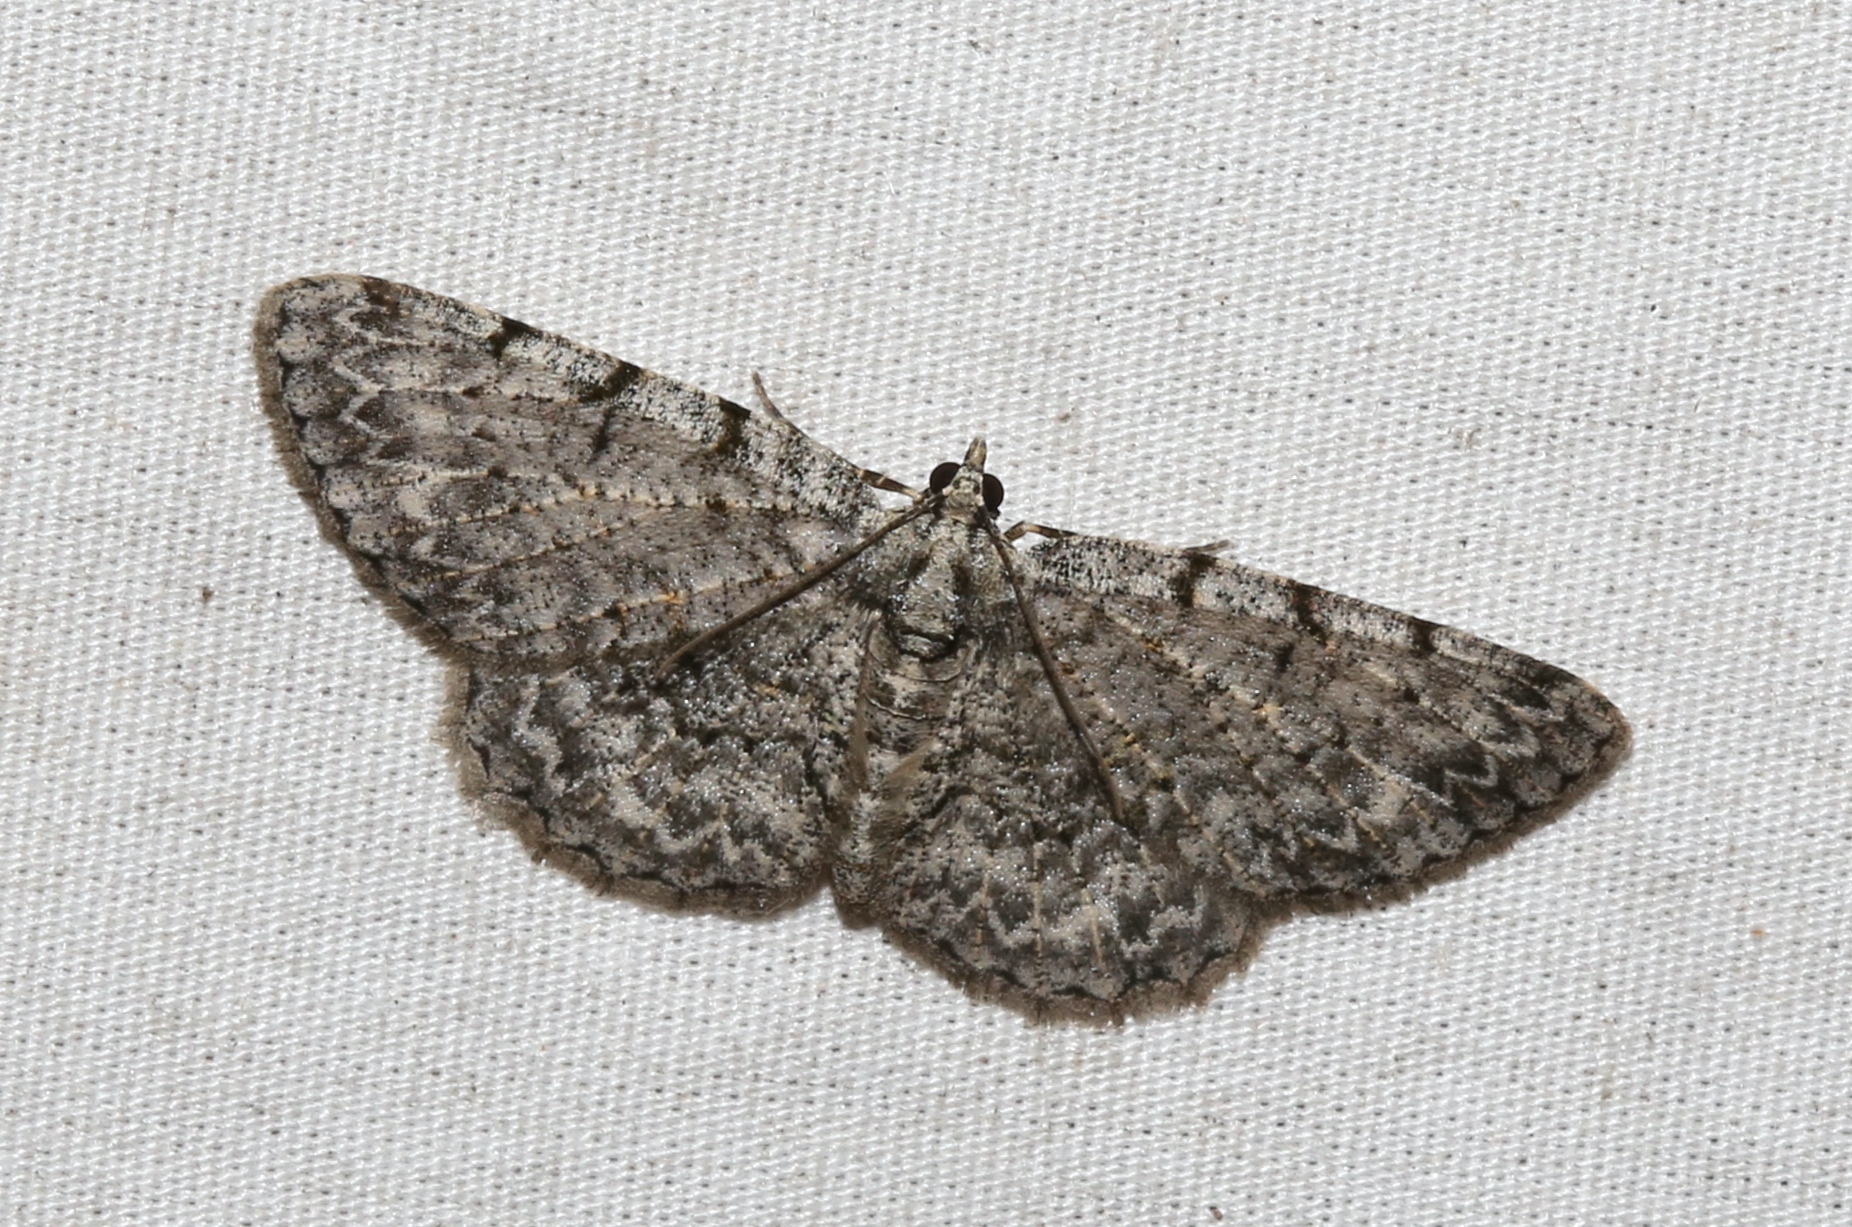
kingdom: Animalia
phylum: Arthropoda
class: Insecta
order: Lepidoptera
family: Geometridae
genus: Protoboarmia
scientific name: Protoboarmia porcelaria
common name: Porcelain gray
